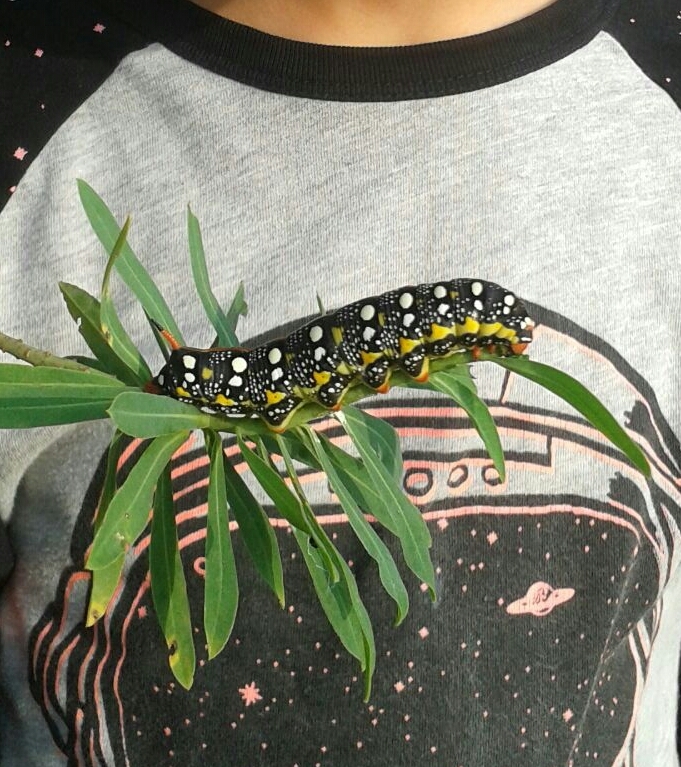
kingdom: Animalia
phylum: Arthropoda
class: Insecta
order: Lepidoptera
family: Sphingidae
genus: Hyles
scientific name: Hyles euphorbiae
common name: Spurge hawk-moth
